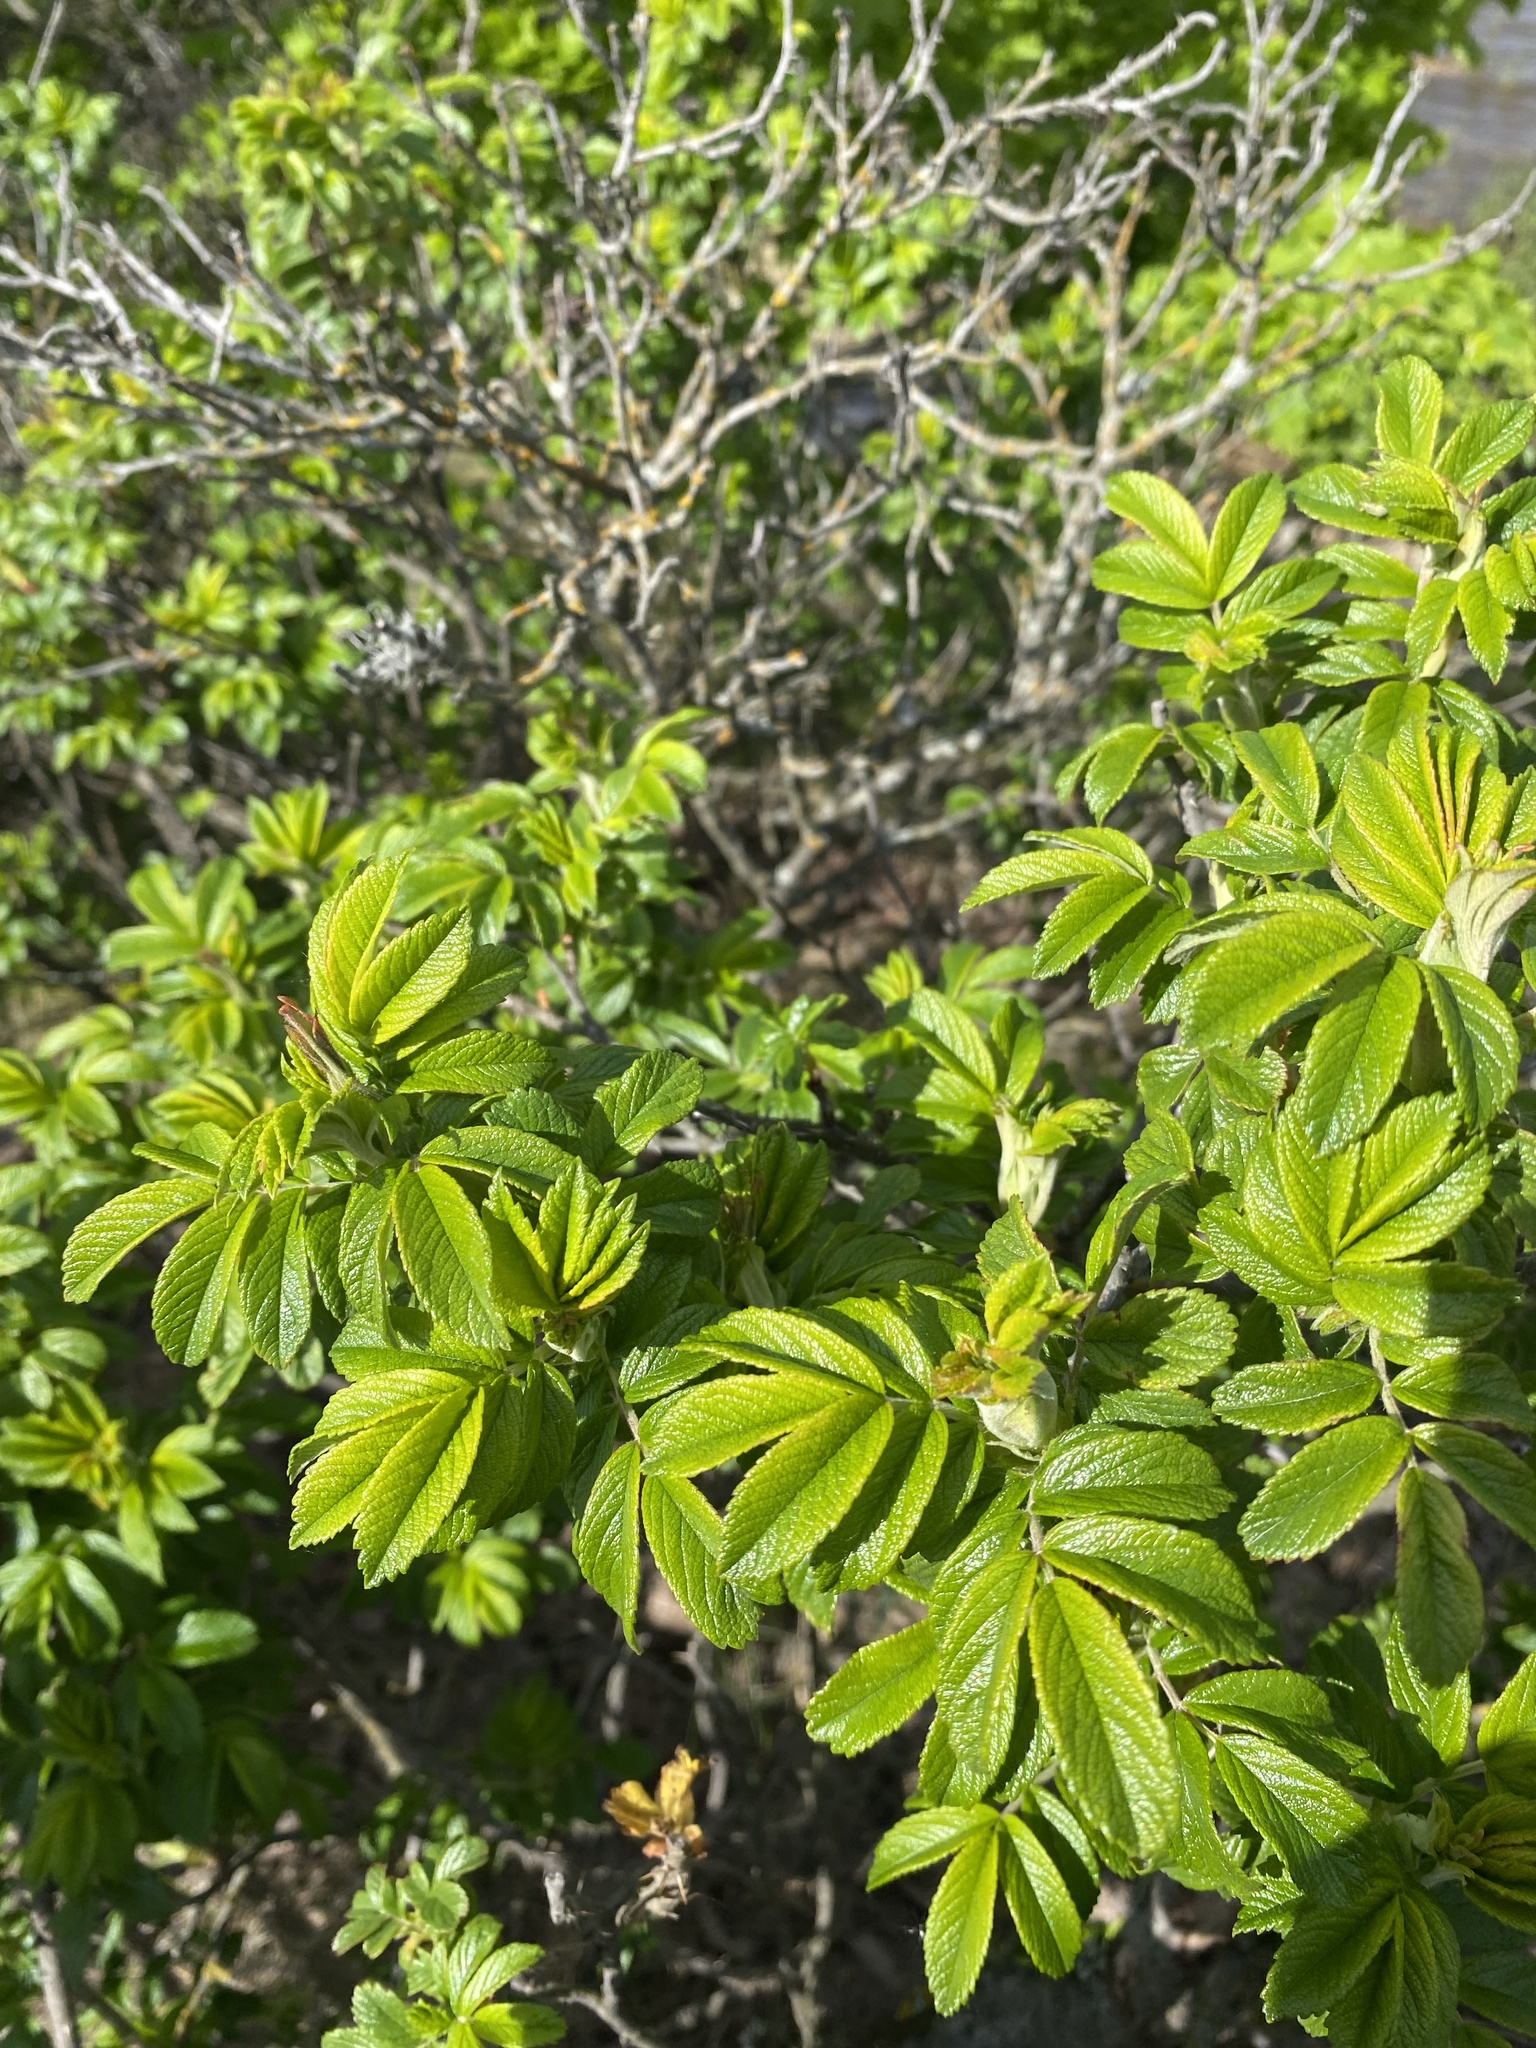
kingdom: Plantae
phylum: Tracheophyta
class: Magnoliopsida
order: Rosales
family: Rosaceae
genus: Rosa
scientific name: Rosa rugosa
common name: Japanese rose
